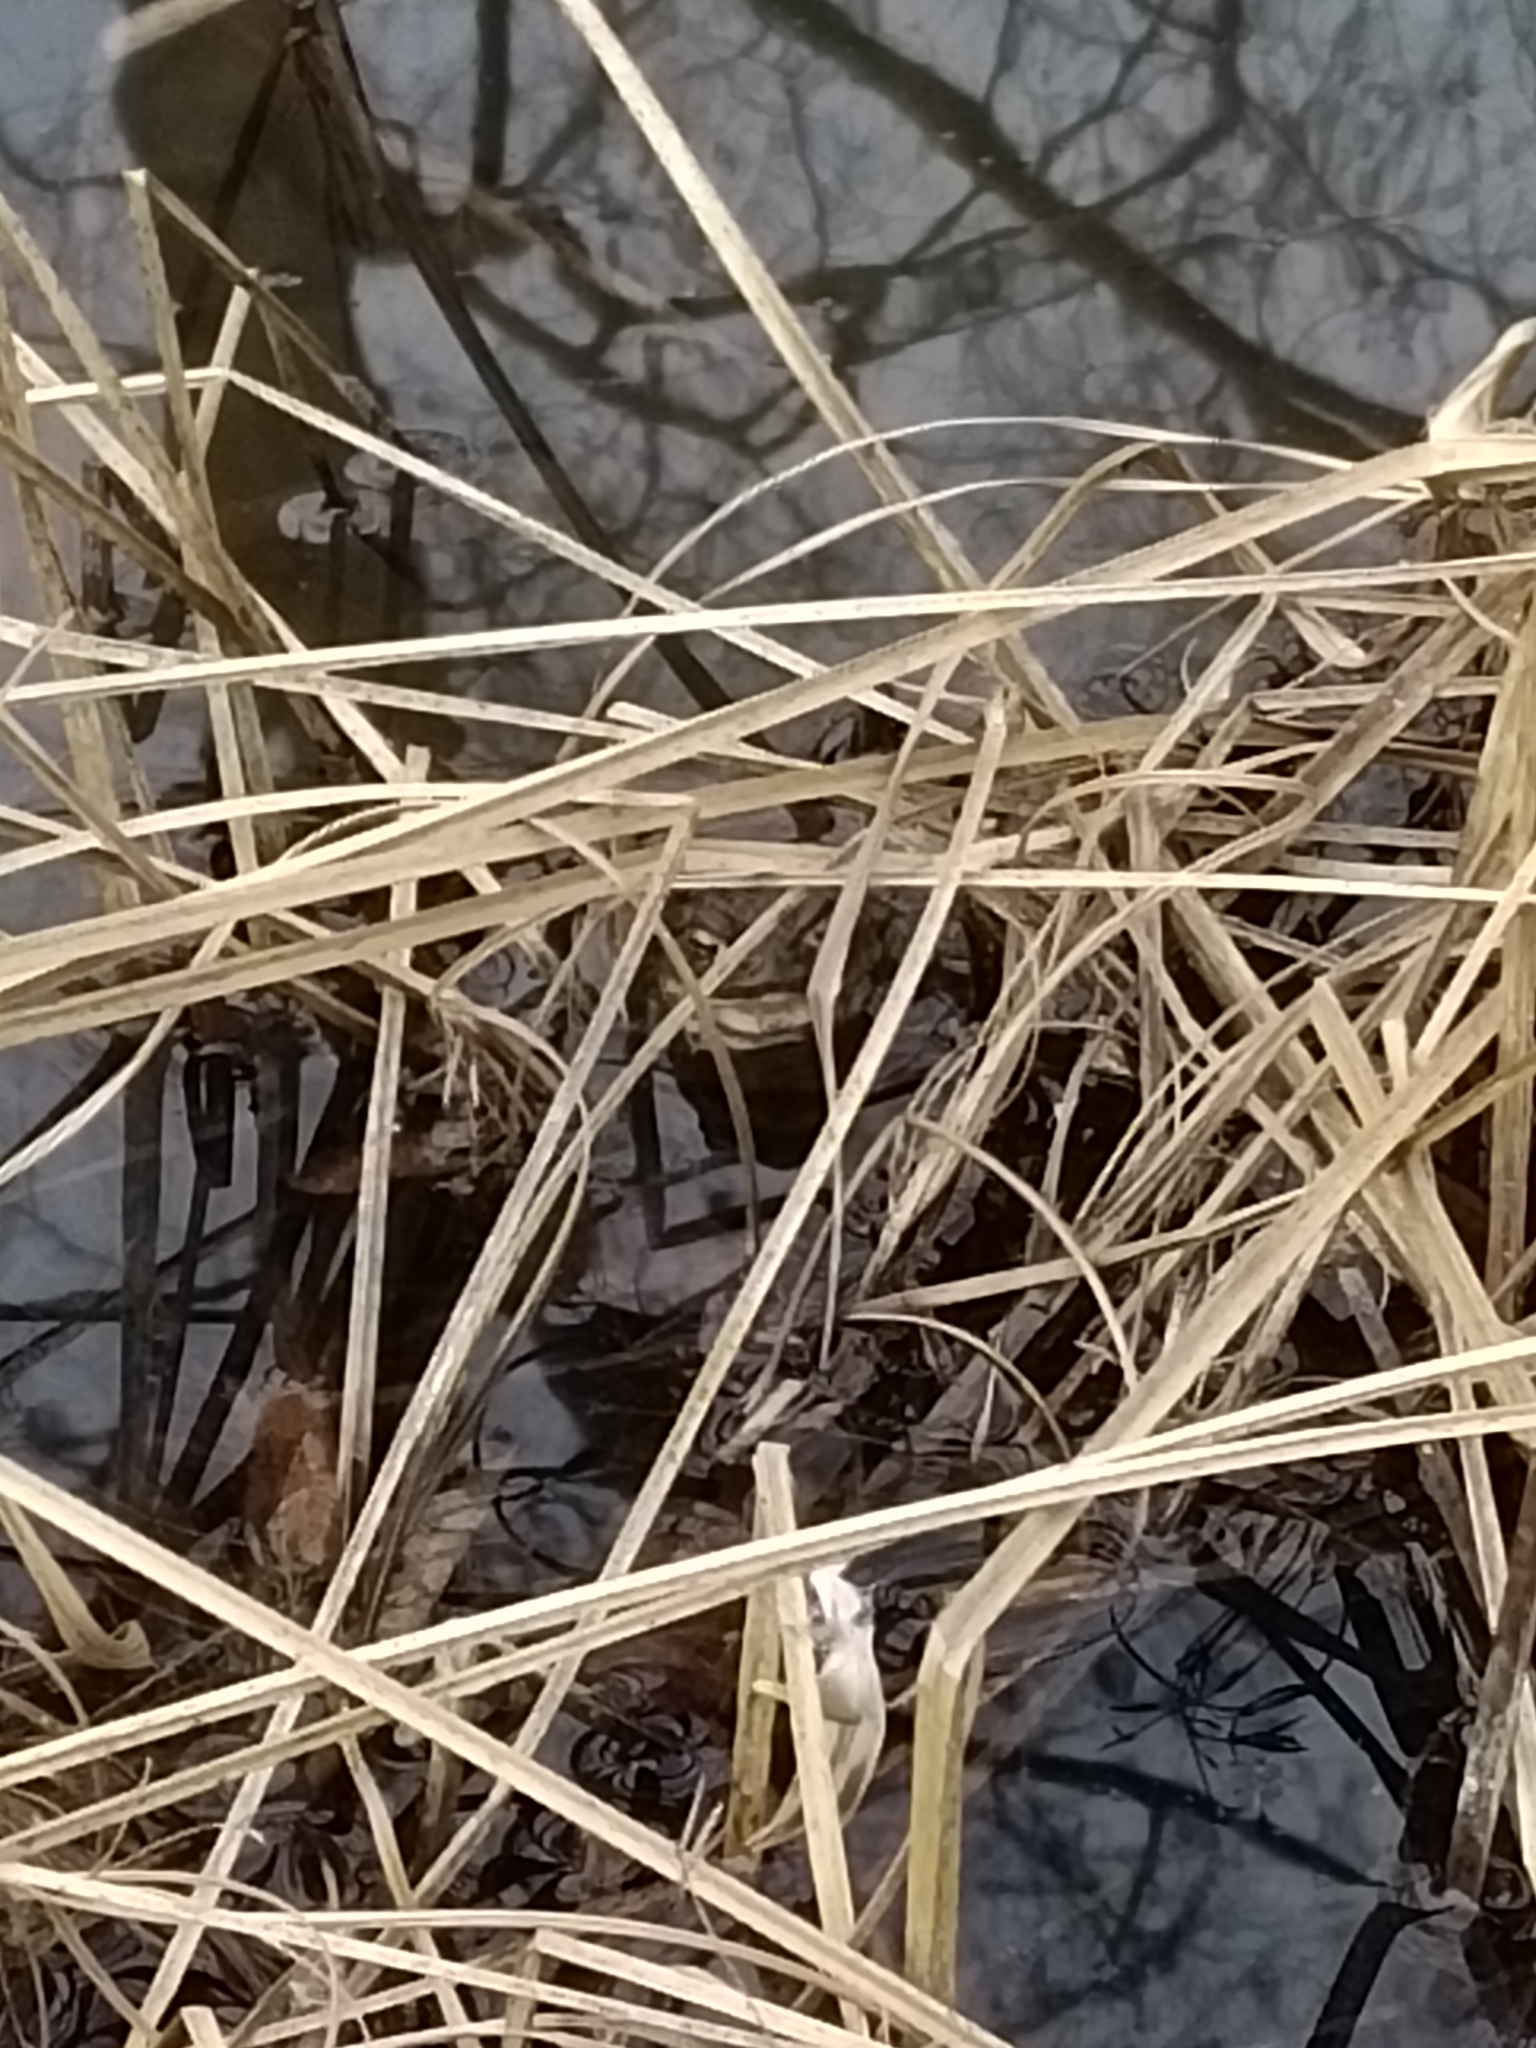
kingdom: Animalia
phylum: Chordata
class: Amphibia
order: Anura
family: Bufonidae
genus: Bufo
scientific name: Bufo bufo
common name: Common toad
